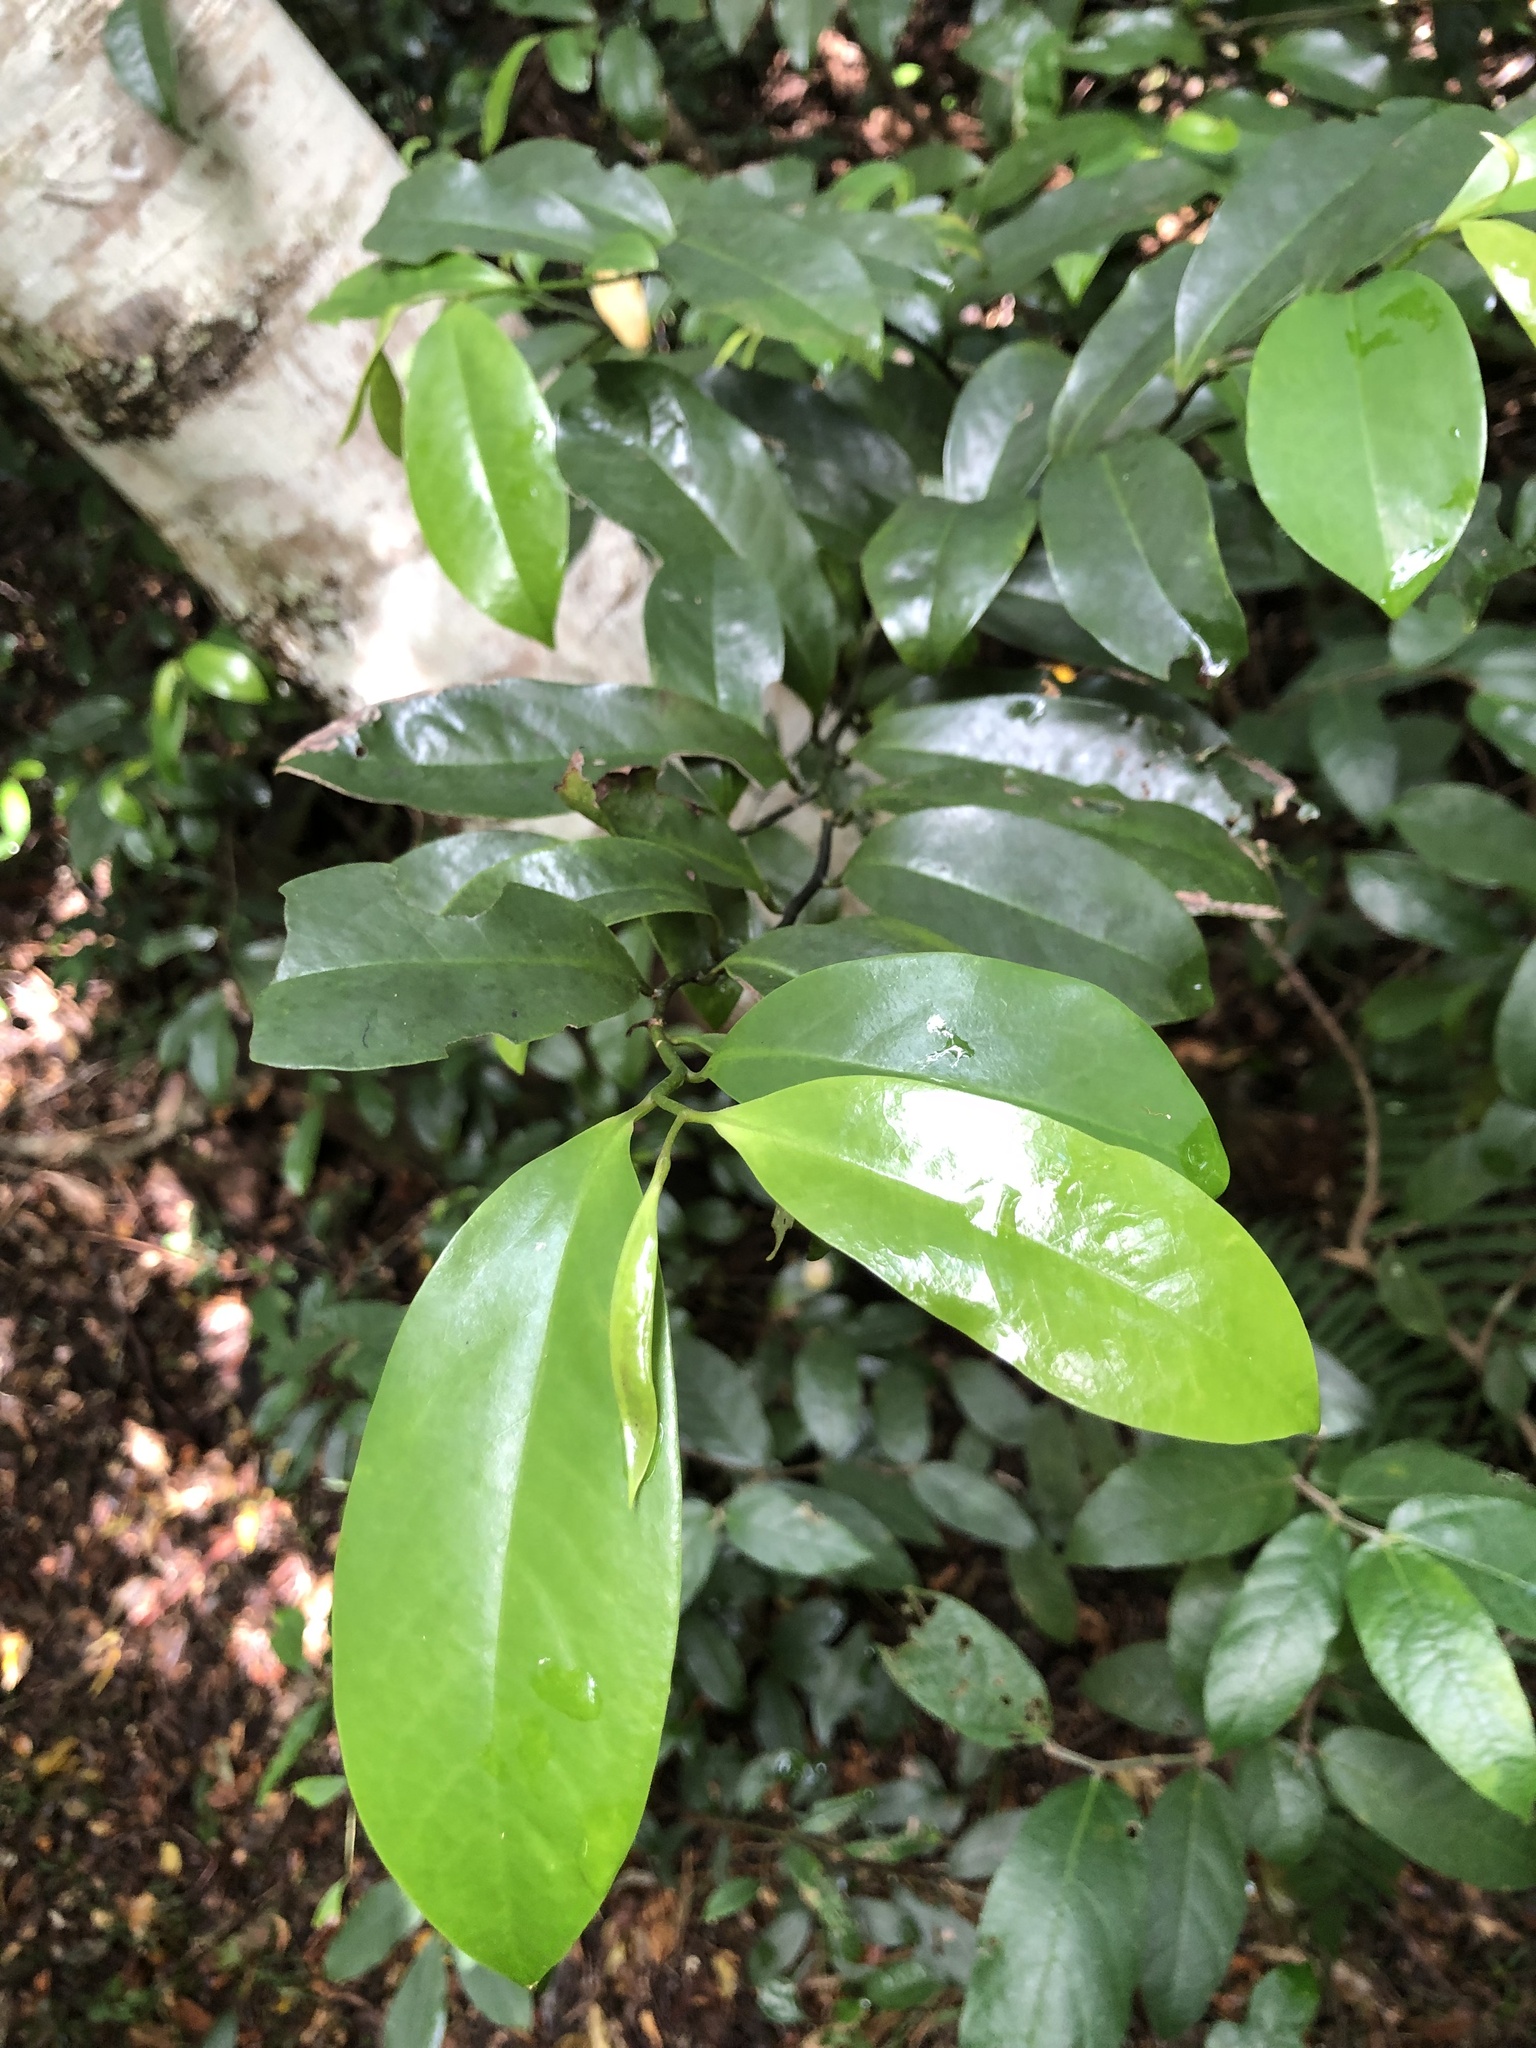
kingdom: Plantae
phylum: Tracheophyta
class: Magnoliopsida
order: Magnoliales
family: Eupomatiaceae
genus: Eupomatia
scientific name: Eupomatia laurina
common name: Bolwarra
